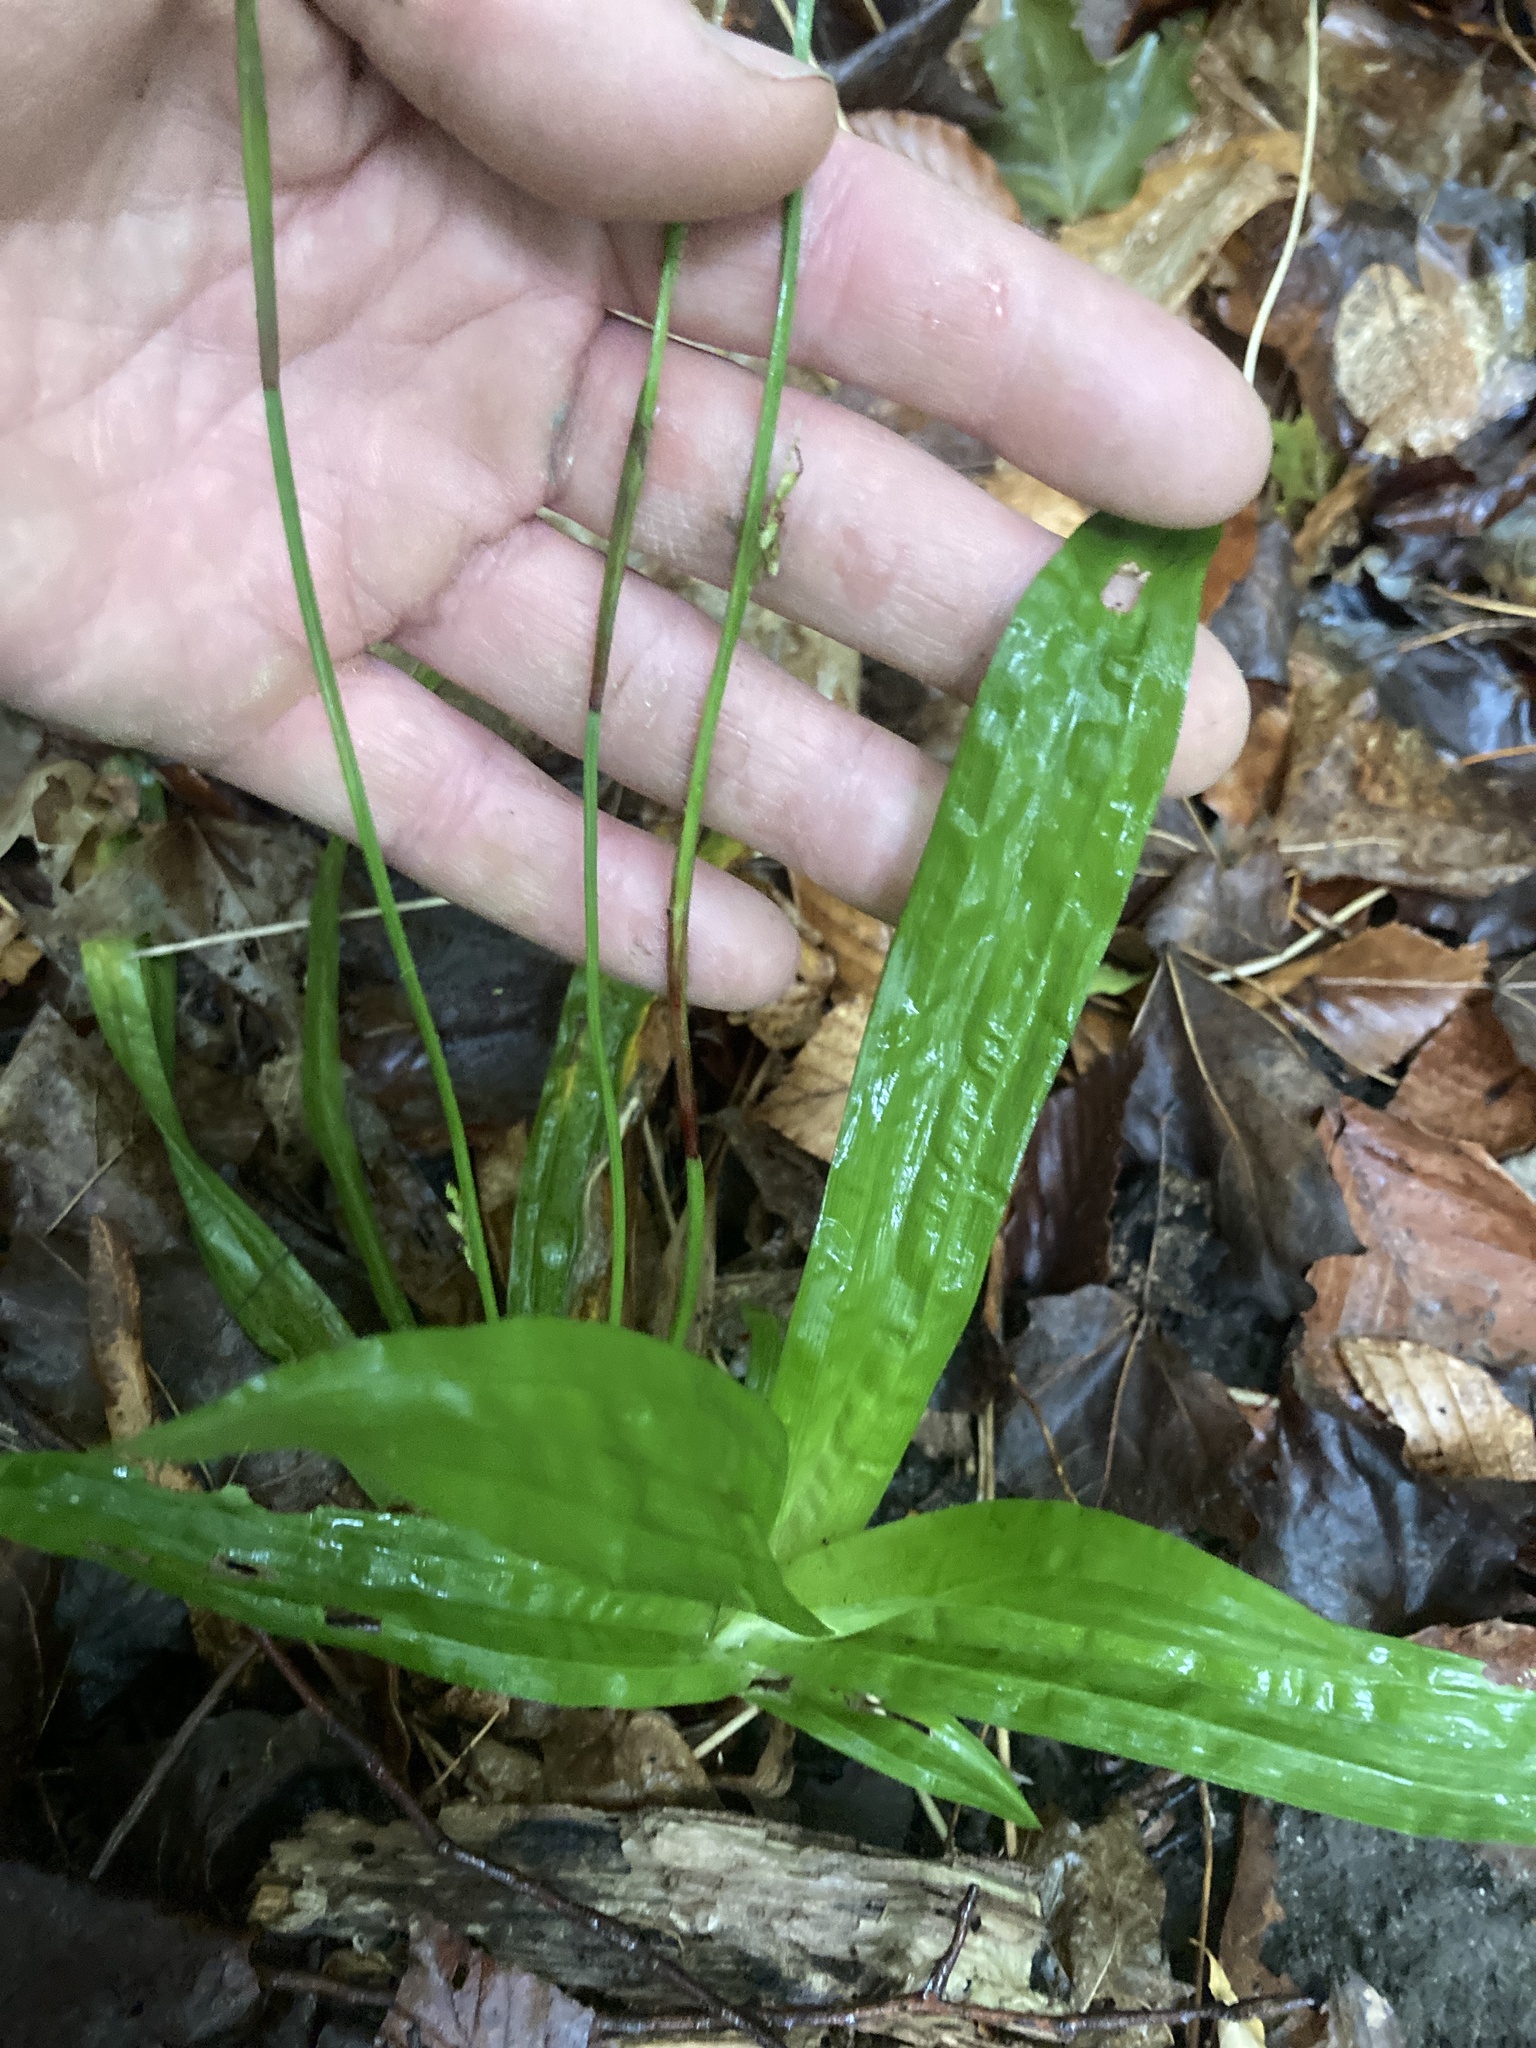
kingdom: Plantae
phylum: Tracheophyta
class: Liliopsida
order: Poales
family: Cyperaceae
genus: Carex
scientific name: Carex plantaginea
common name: Plantain-leaved sedge
